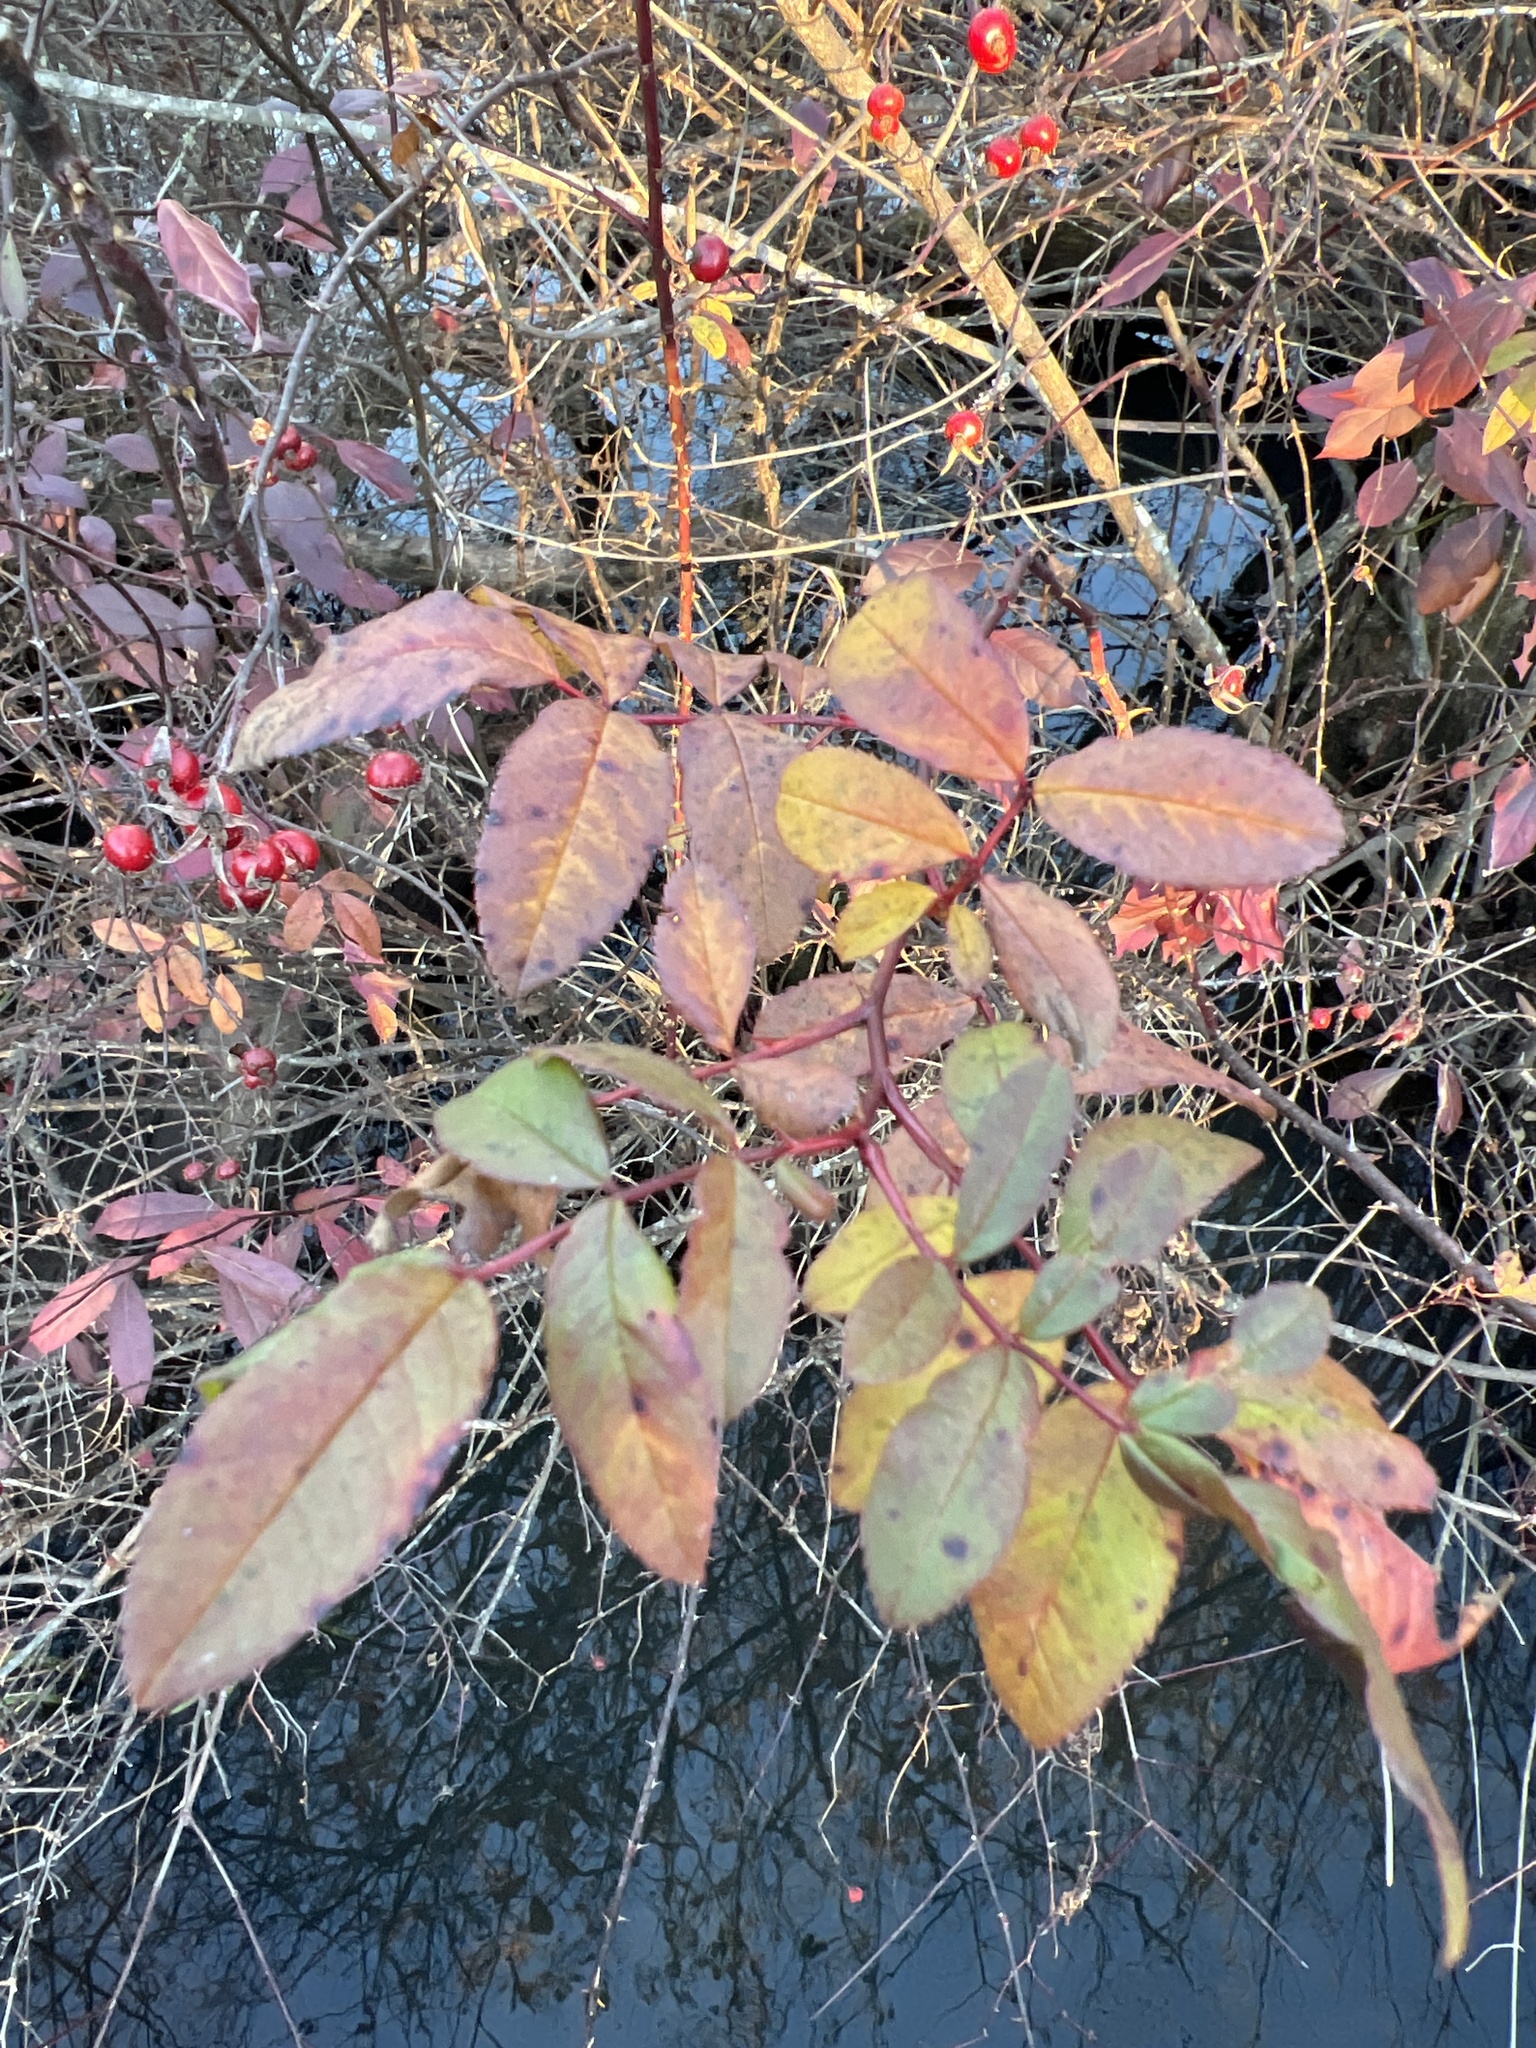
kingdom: Plantae
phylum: Tracheophyta
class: Magnoliopsida
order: Rosales
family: Rosaceae
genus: Rosa
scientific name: Rosa palustris
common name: Swamp rose
